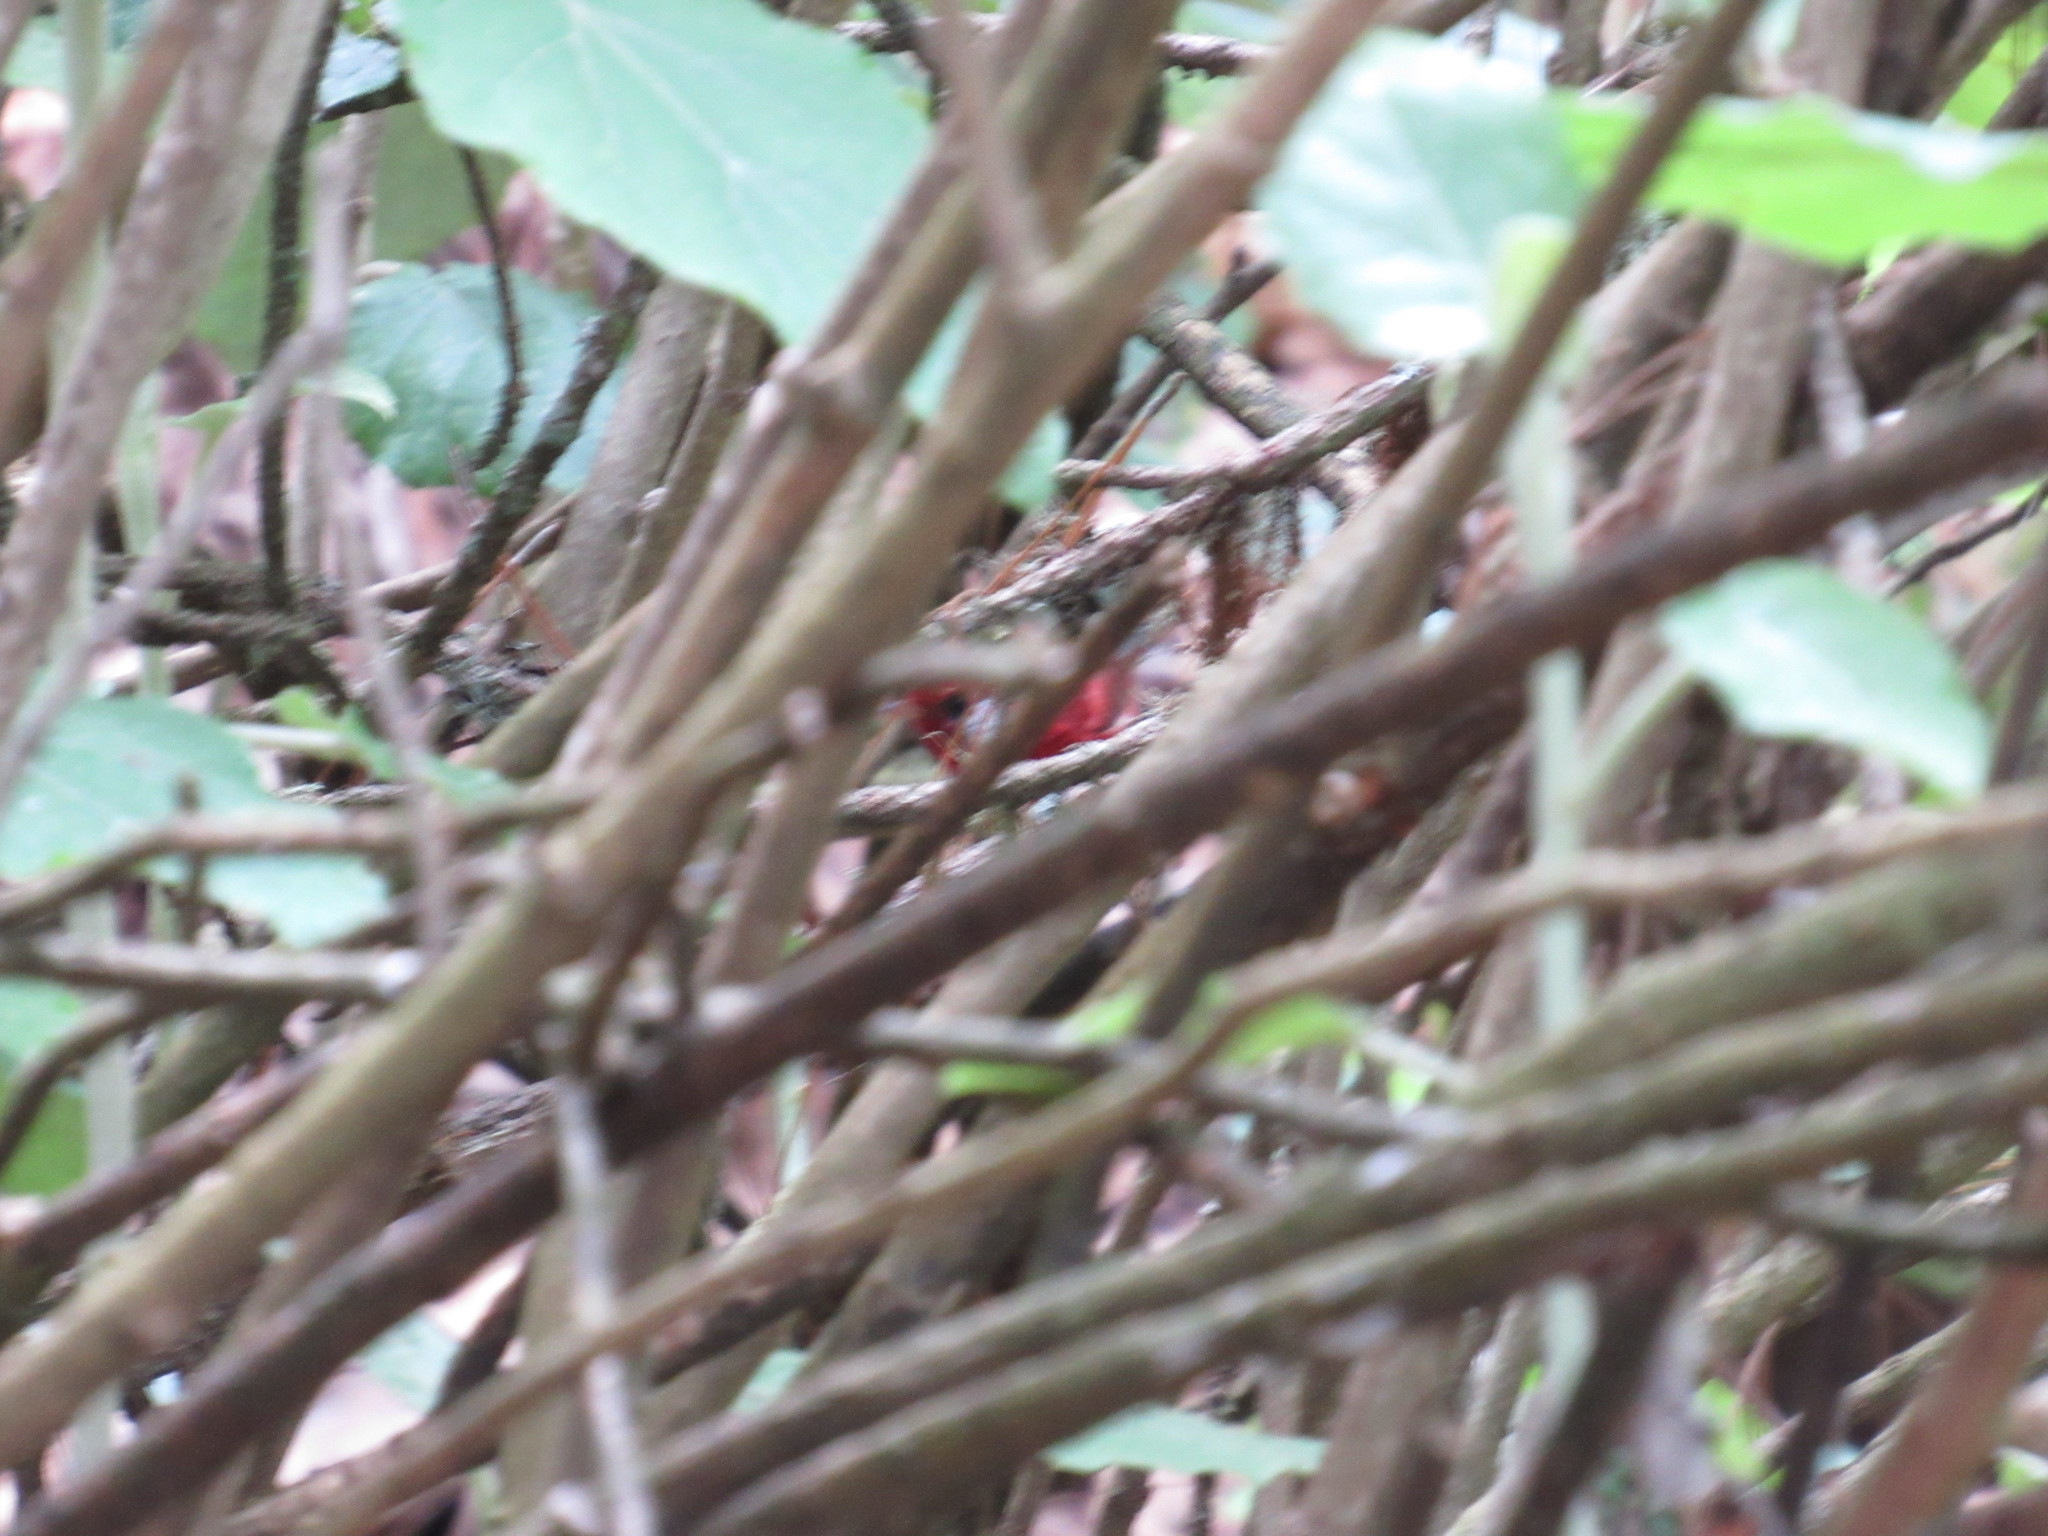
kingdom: Animalia
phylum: Chordata
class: Aves
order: Passeriformes
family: Parulidae
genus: Cardellina
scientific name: Cardellina rubra
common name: Red warbler
